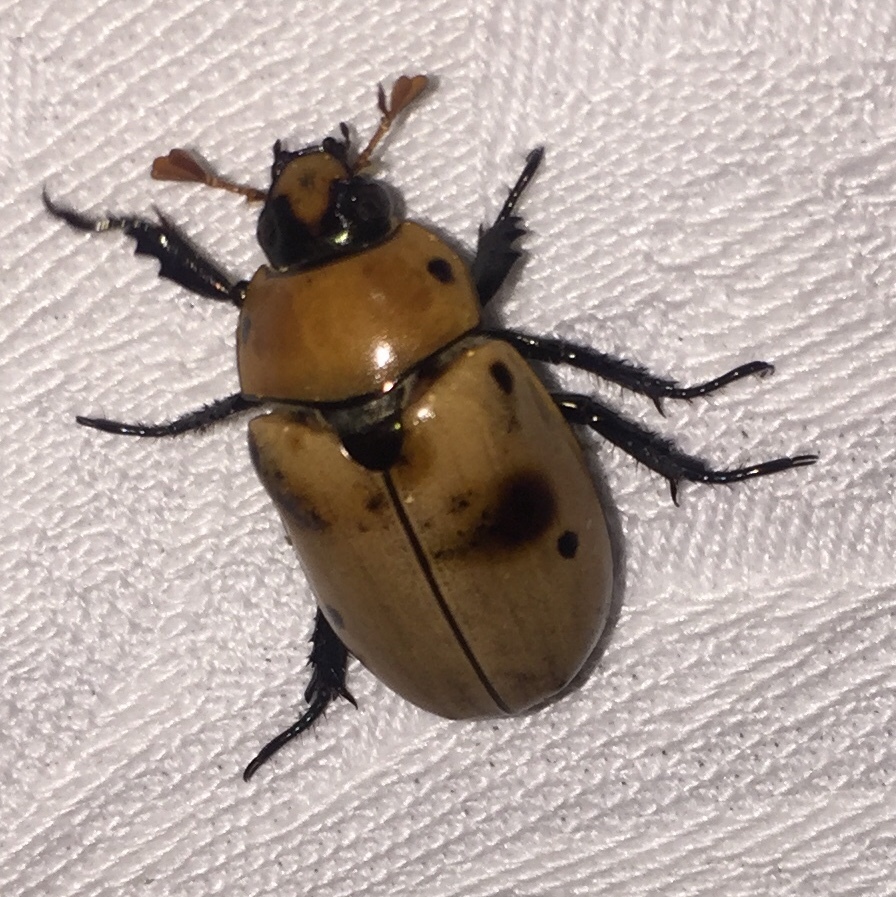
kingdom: Animalia
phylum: Arthropoda
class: Insecta
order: Coleoptera
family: Scarabaeidae
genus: Pelidnota
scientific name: Pelidnota punctata
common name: Grapevine beetle
